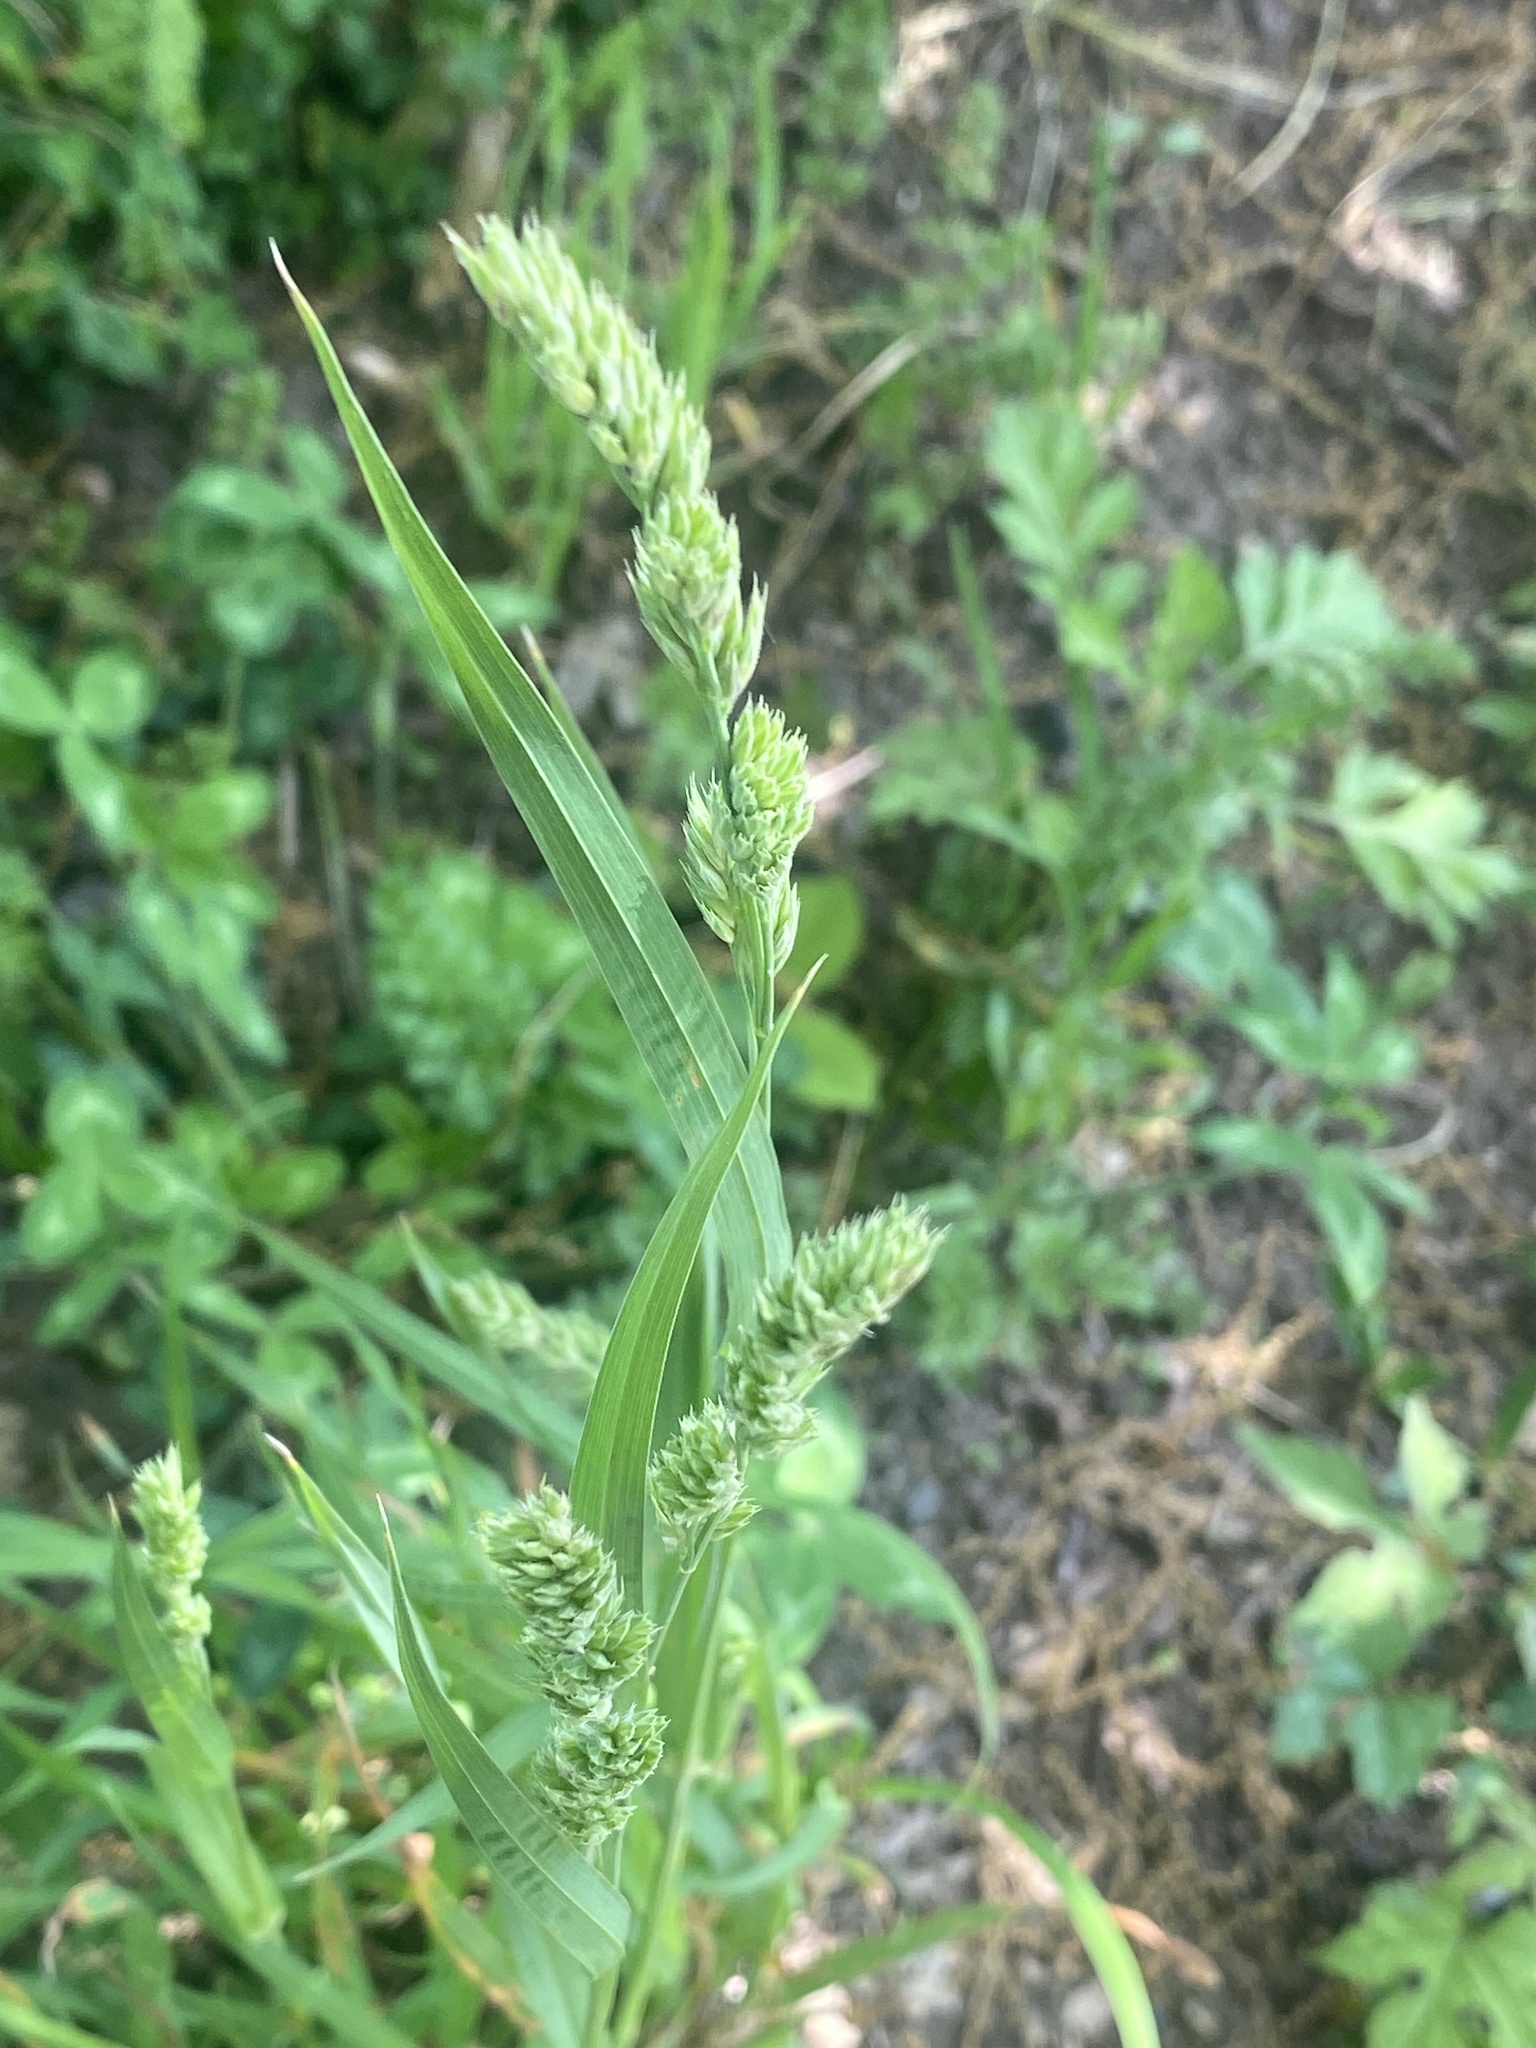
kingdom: Plantae
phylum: Tracheophyta
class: Liliopsida
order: Poales
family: Poaceae
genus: Dactylis
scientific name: Dactylis glomerata
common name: Orchardgrass
